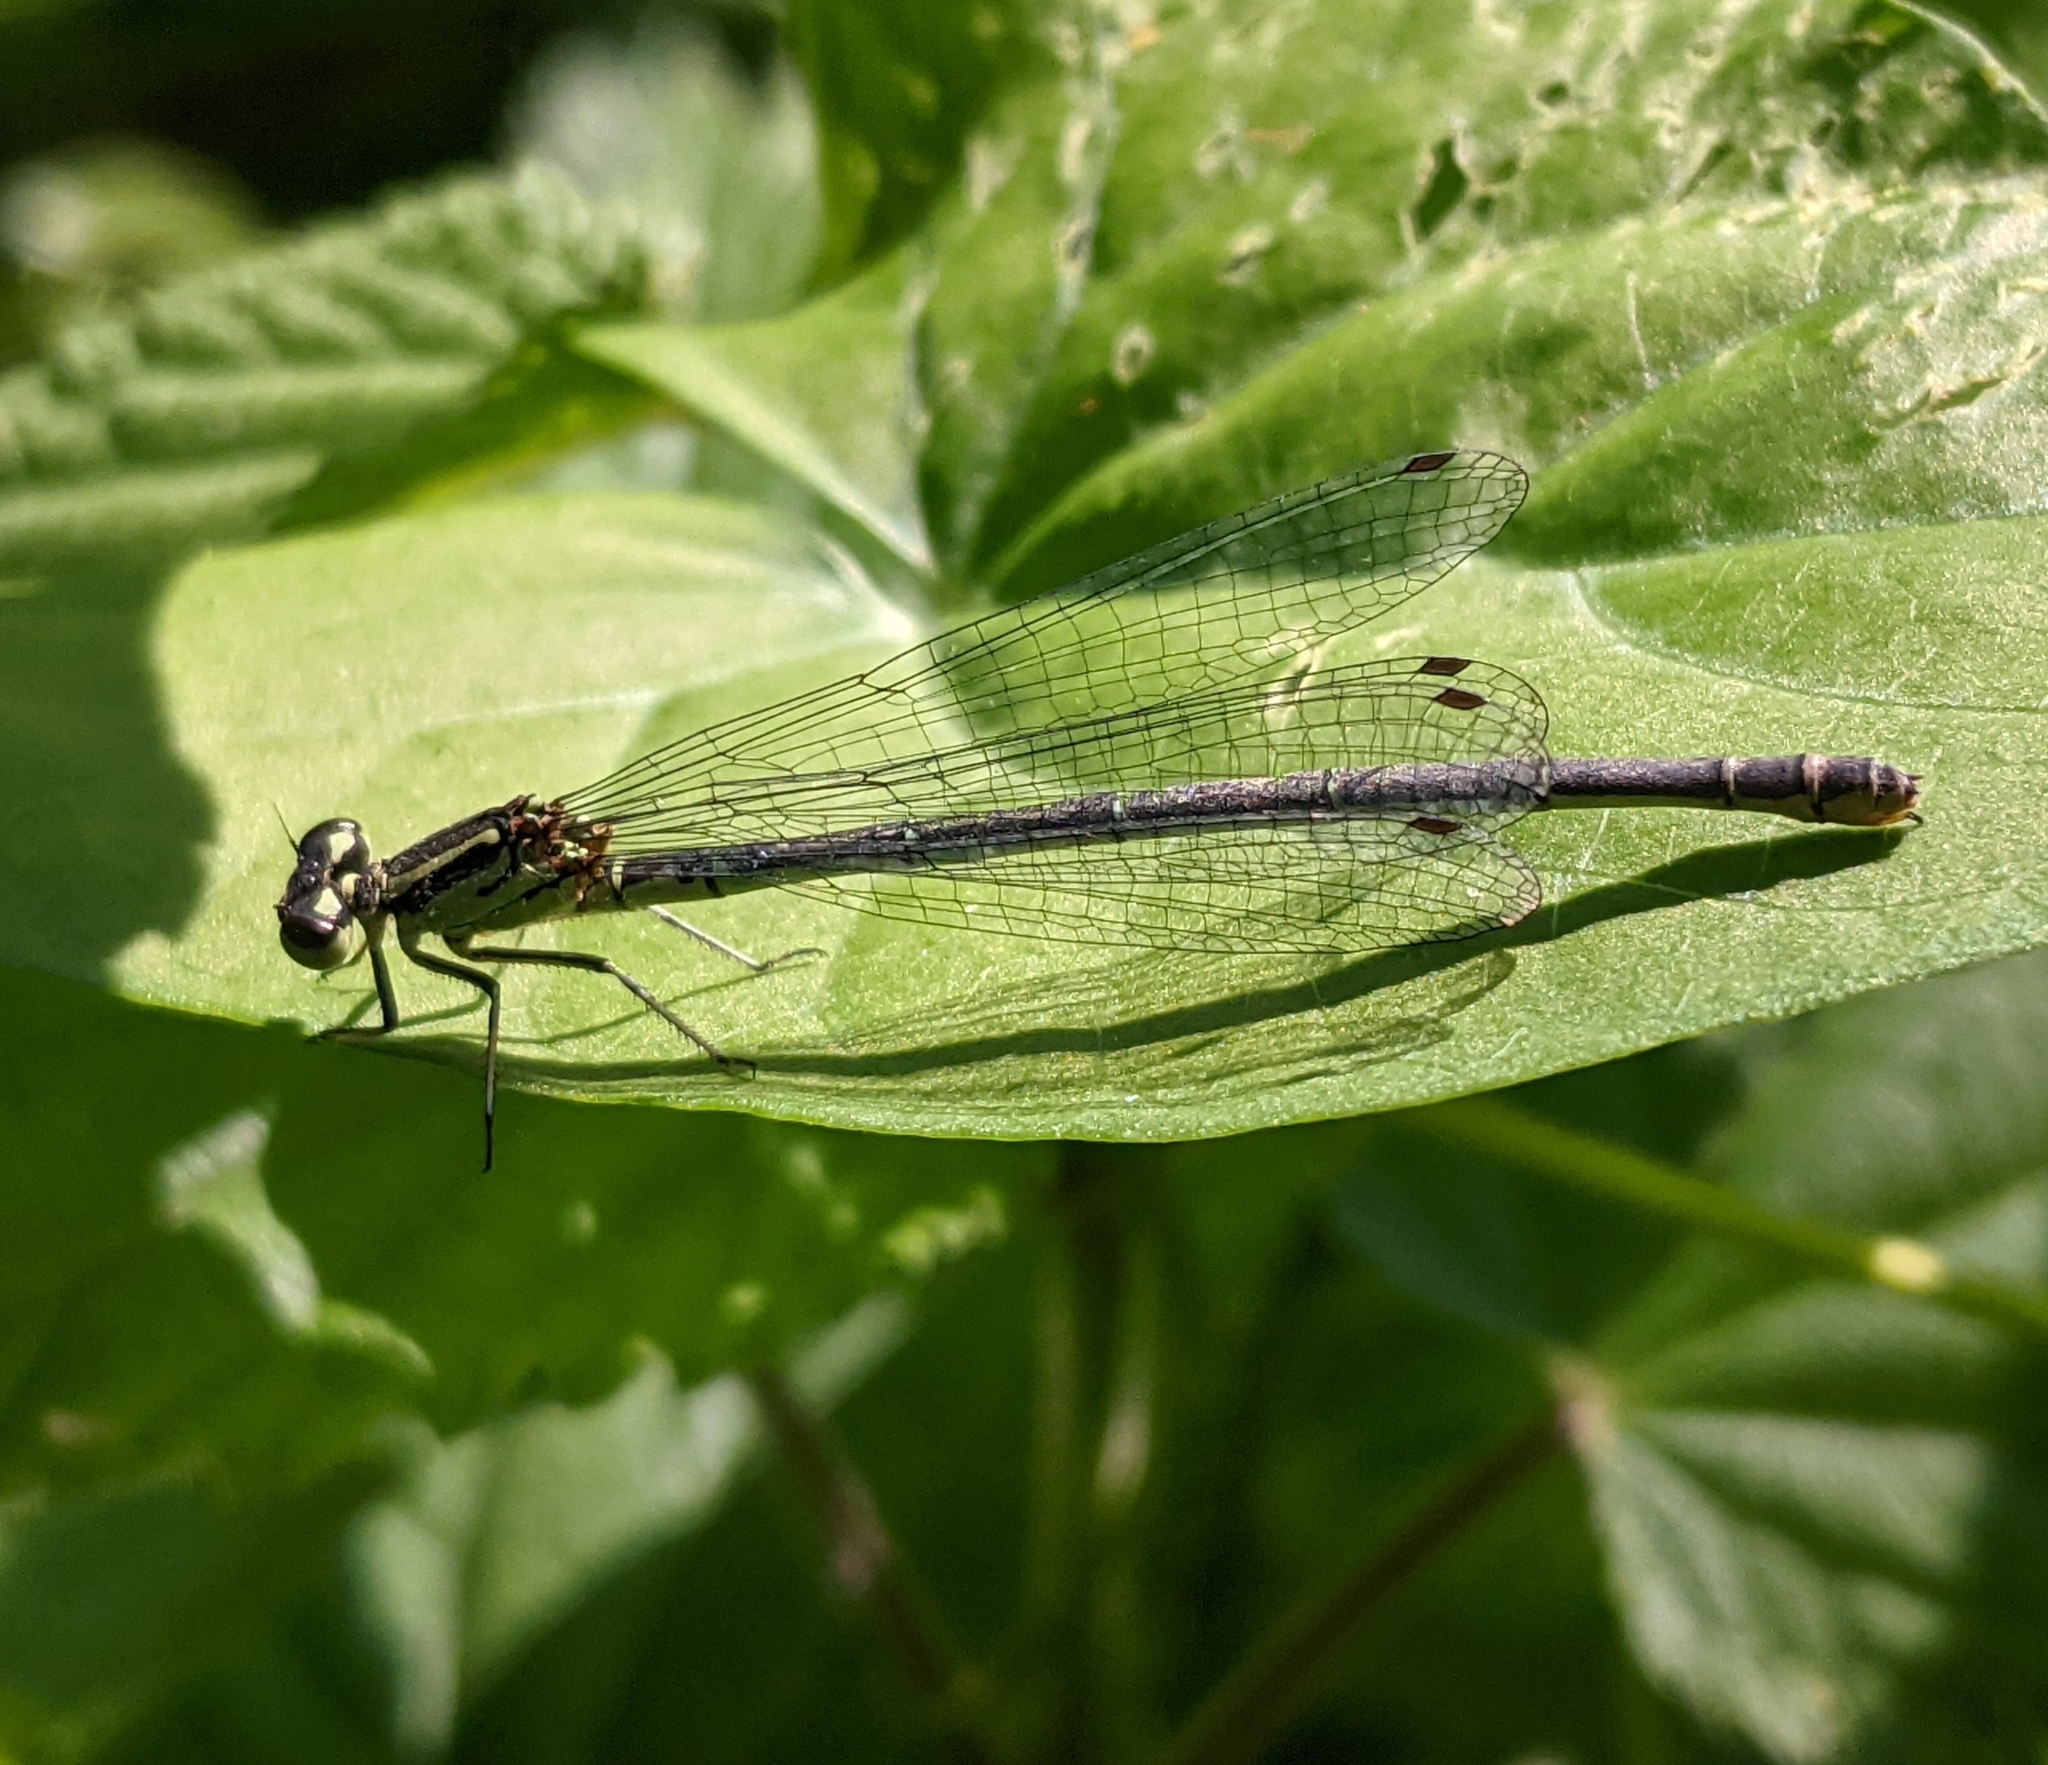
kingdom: Animalia
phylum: Arthropoda
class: Insecta
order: Odonata
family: Coenagrionidae
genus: Coenagrion
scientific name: Coenagrion puella
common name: Azure damselfly
